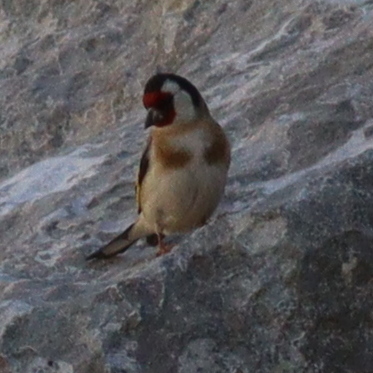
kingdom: Animalia
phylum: Chordata
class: Aves
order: Passeriformes
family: Fringillidae
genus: Carduelis
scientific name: Carduelis carduelis
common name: European goldfinch
